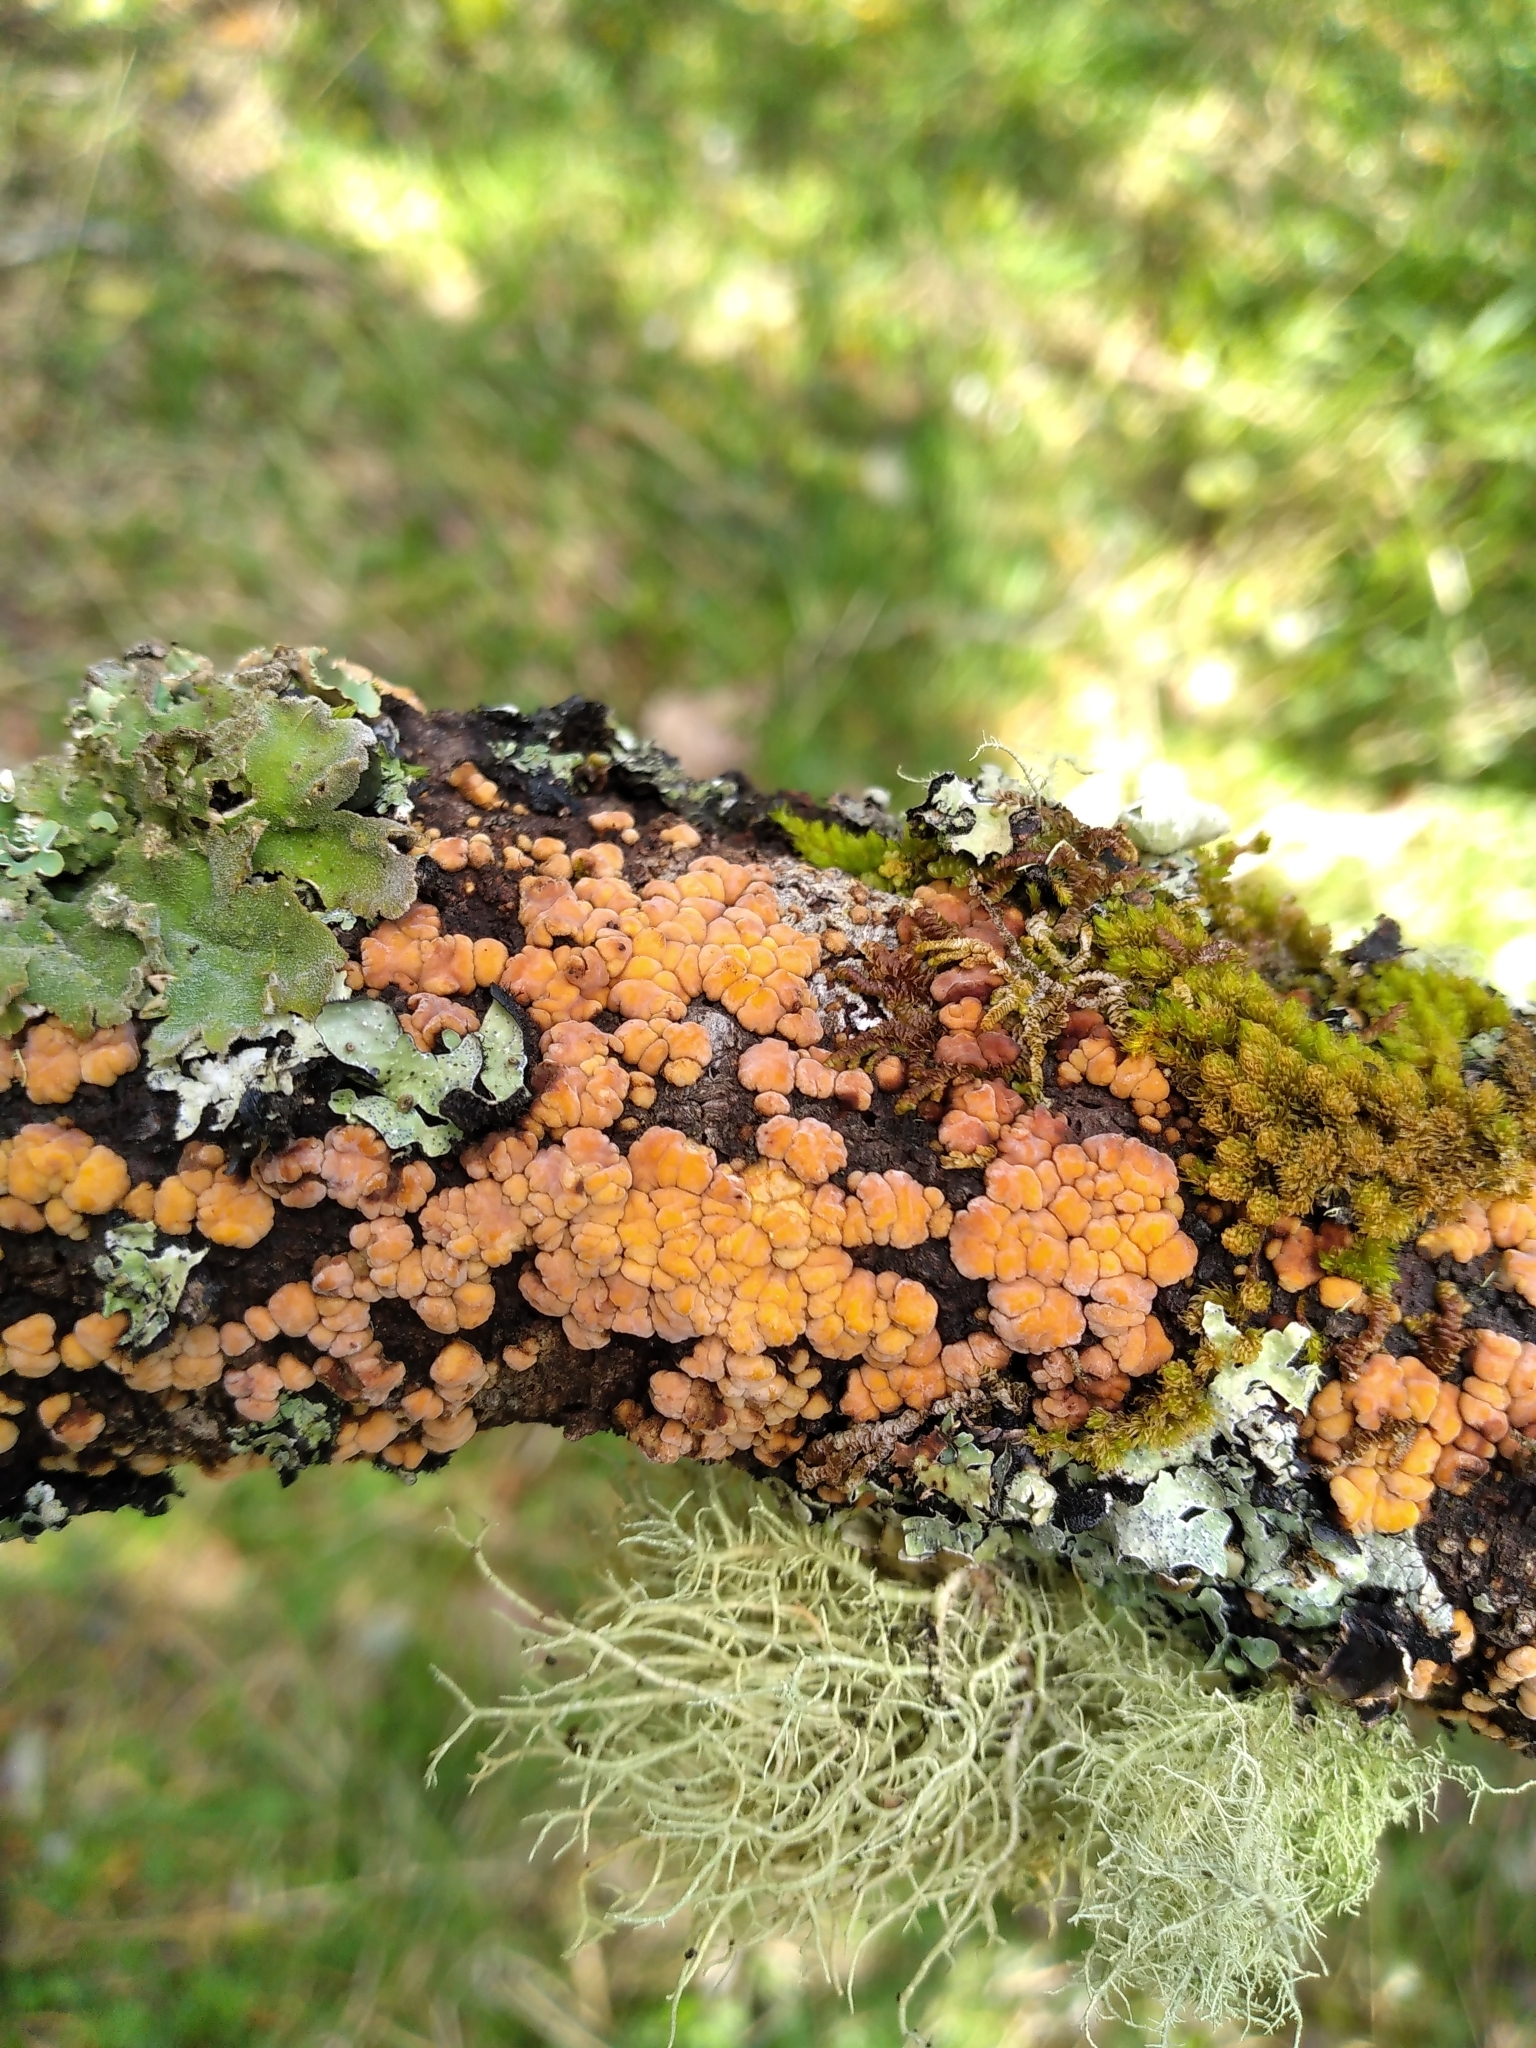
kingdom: Fungi
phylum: Basidiomycota
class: Agaricomycetes
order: Russulales
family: Stereaceae
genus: Aleurodiscus
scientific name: Aleurodiscus berggrenii
